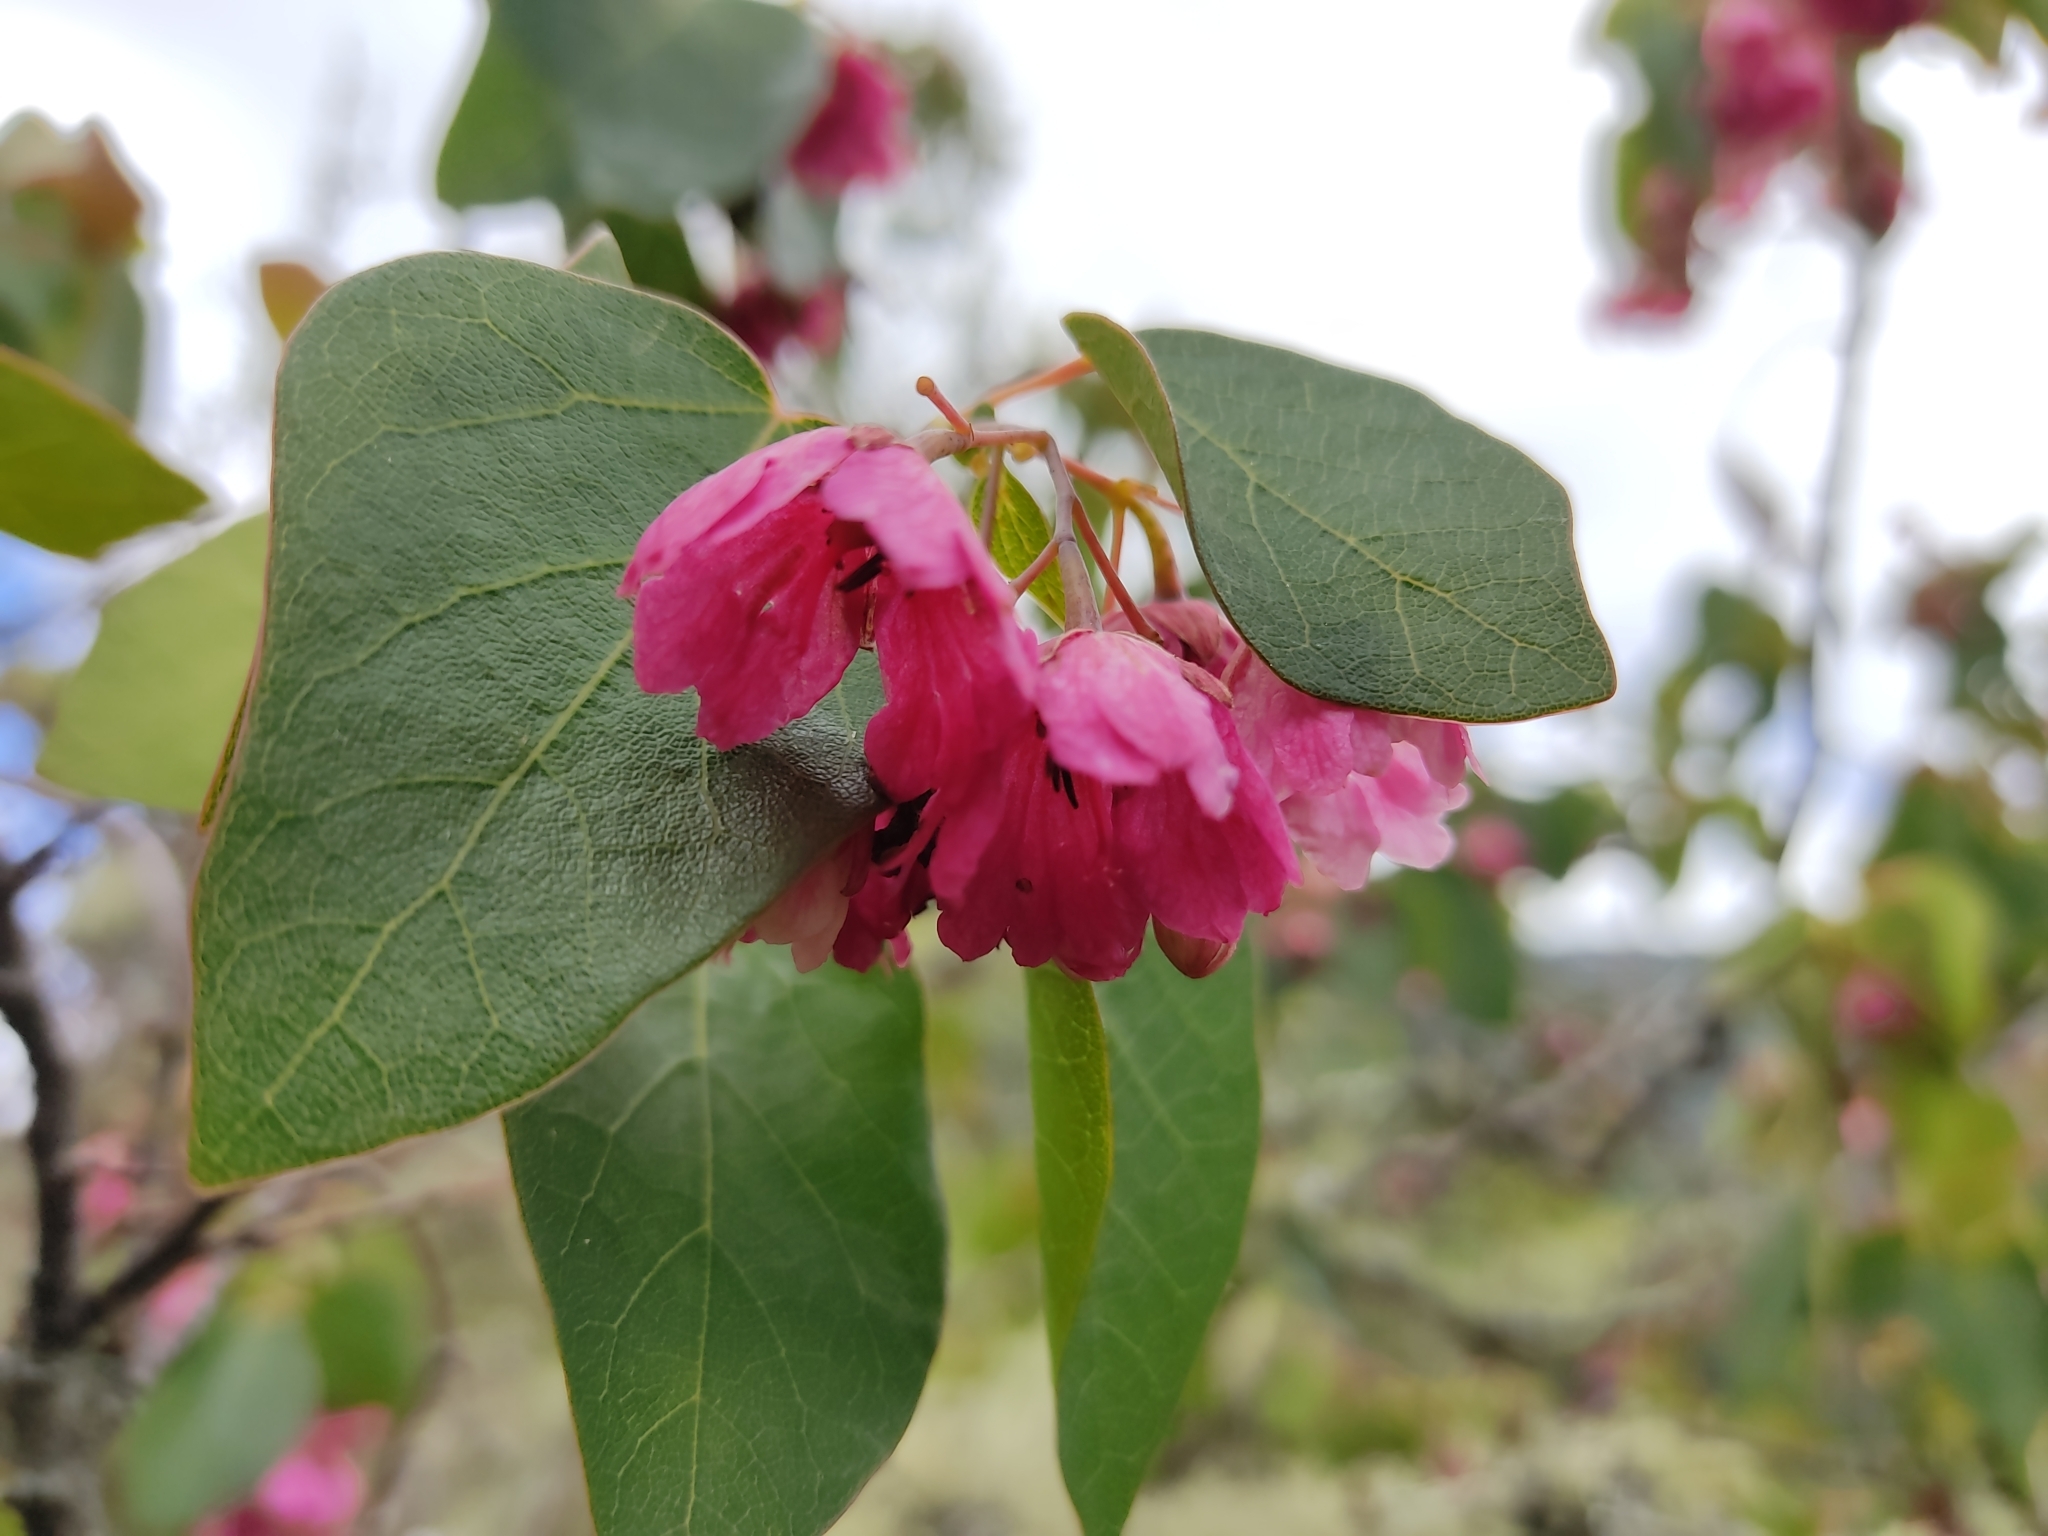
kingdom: Plantae
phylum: Tracheophyta
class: Magnoliopsida
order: Oxalidales
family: Elaeocarpaceae
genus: Vallea
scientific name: Vallea stipularis
